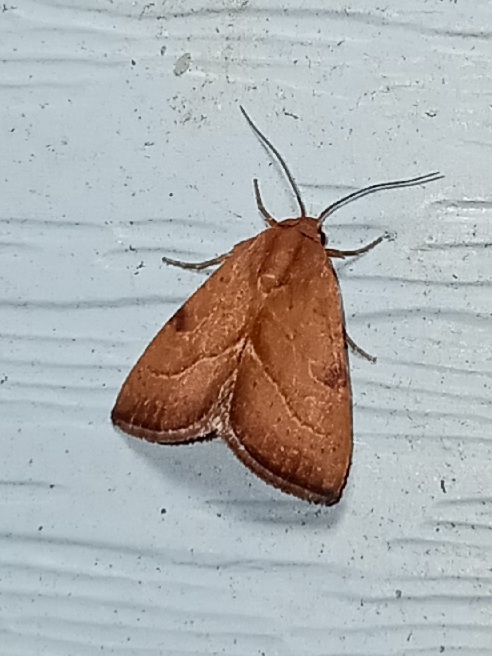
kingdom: Animalia
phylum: Arthropoda
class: Insecta
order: Lepidoptera
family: Noctuidae
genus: Galgula
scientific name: Galgula partita
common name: Wedgeling
